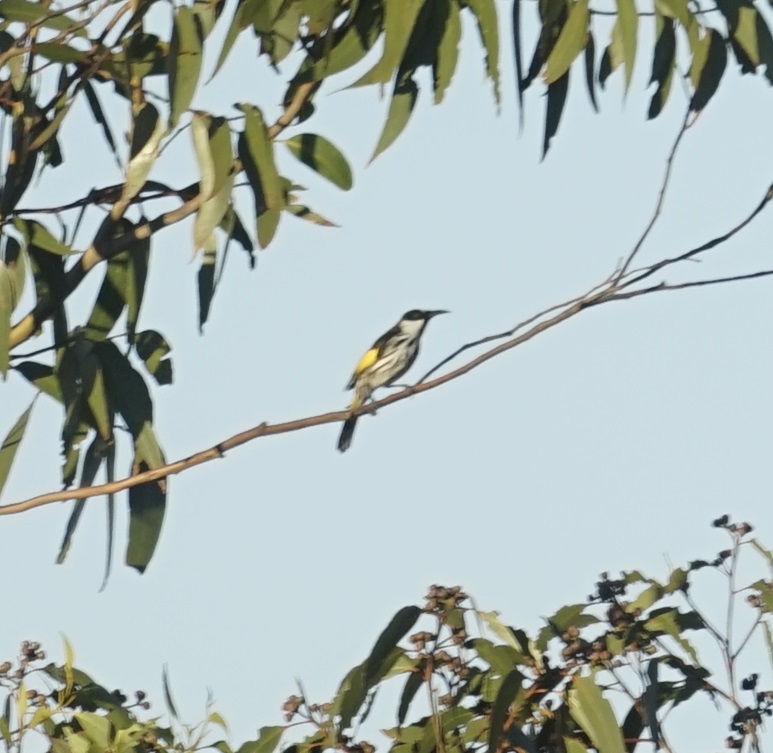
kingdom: Animalia
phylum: Chordata
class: Aves
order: Passeriformes
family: Meliphagidae
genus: Phylidonyris
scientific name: Phylidonyris niger
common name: White-cheeked honeyeater
